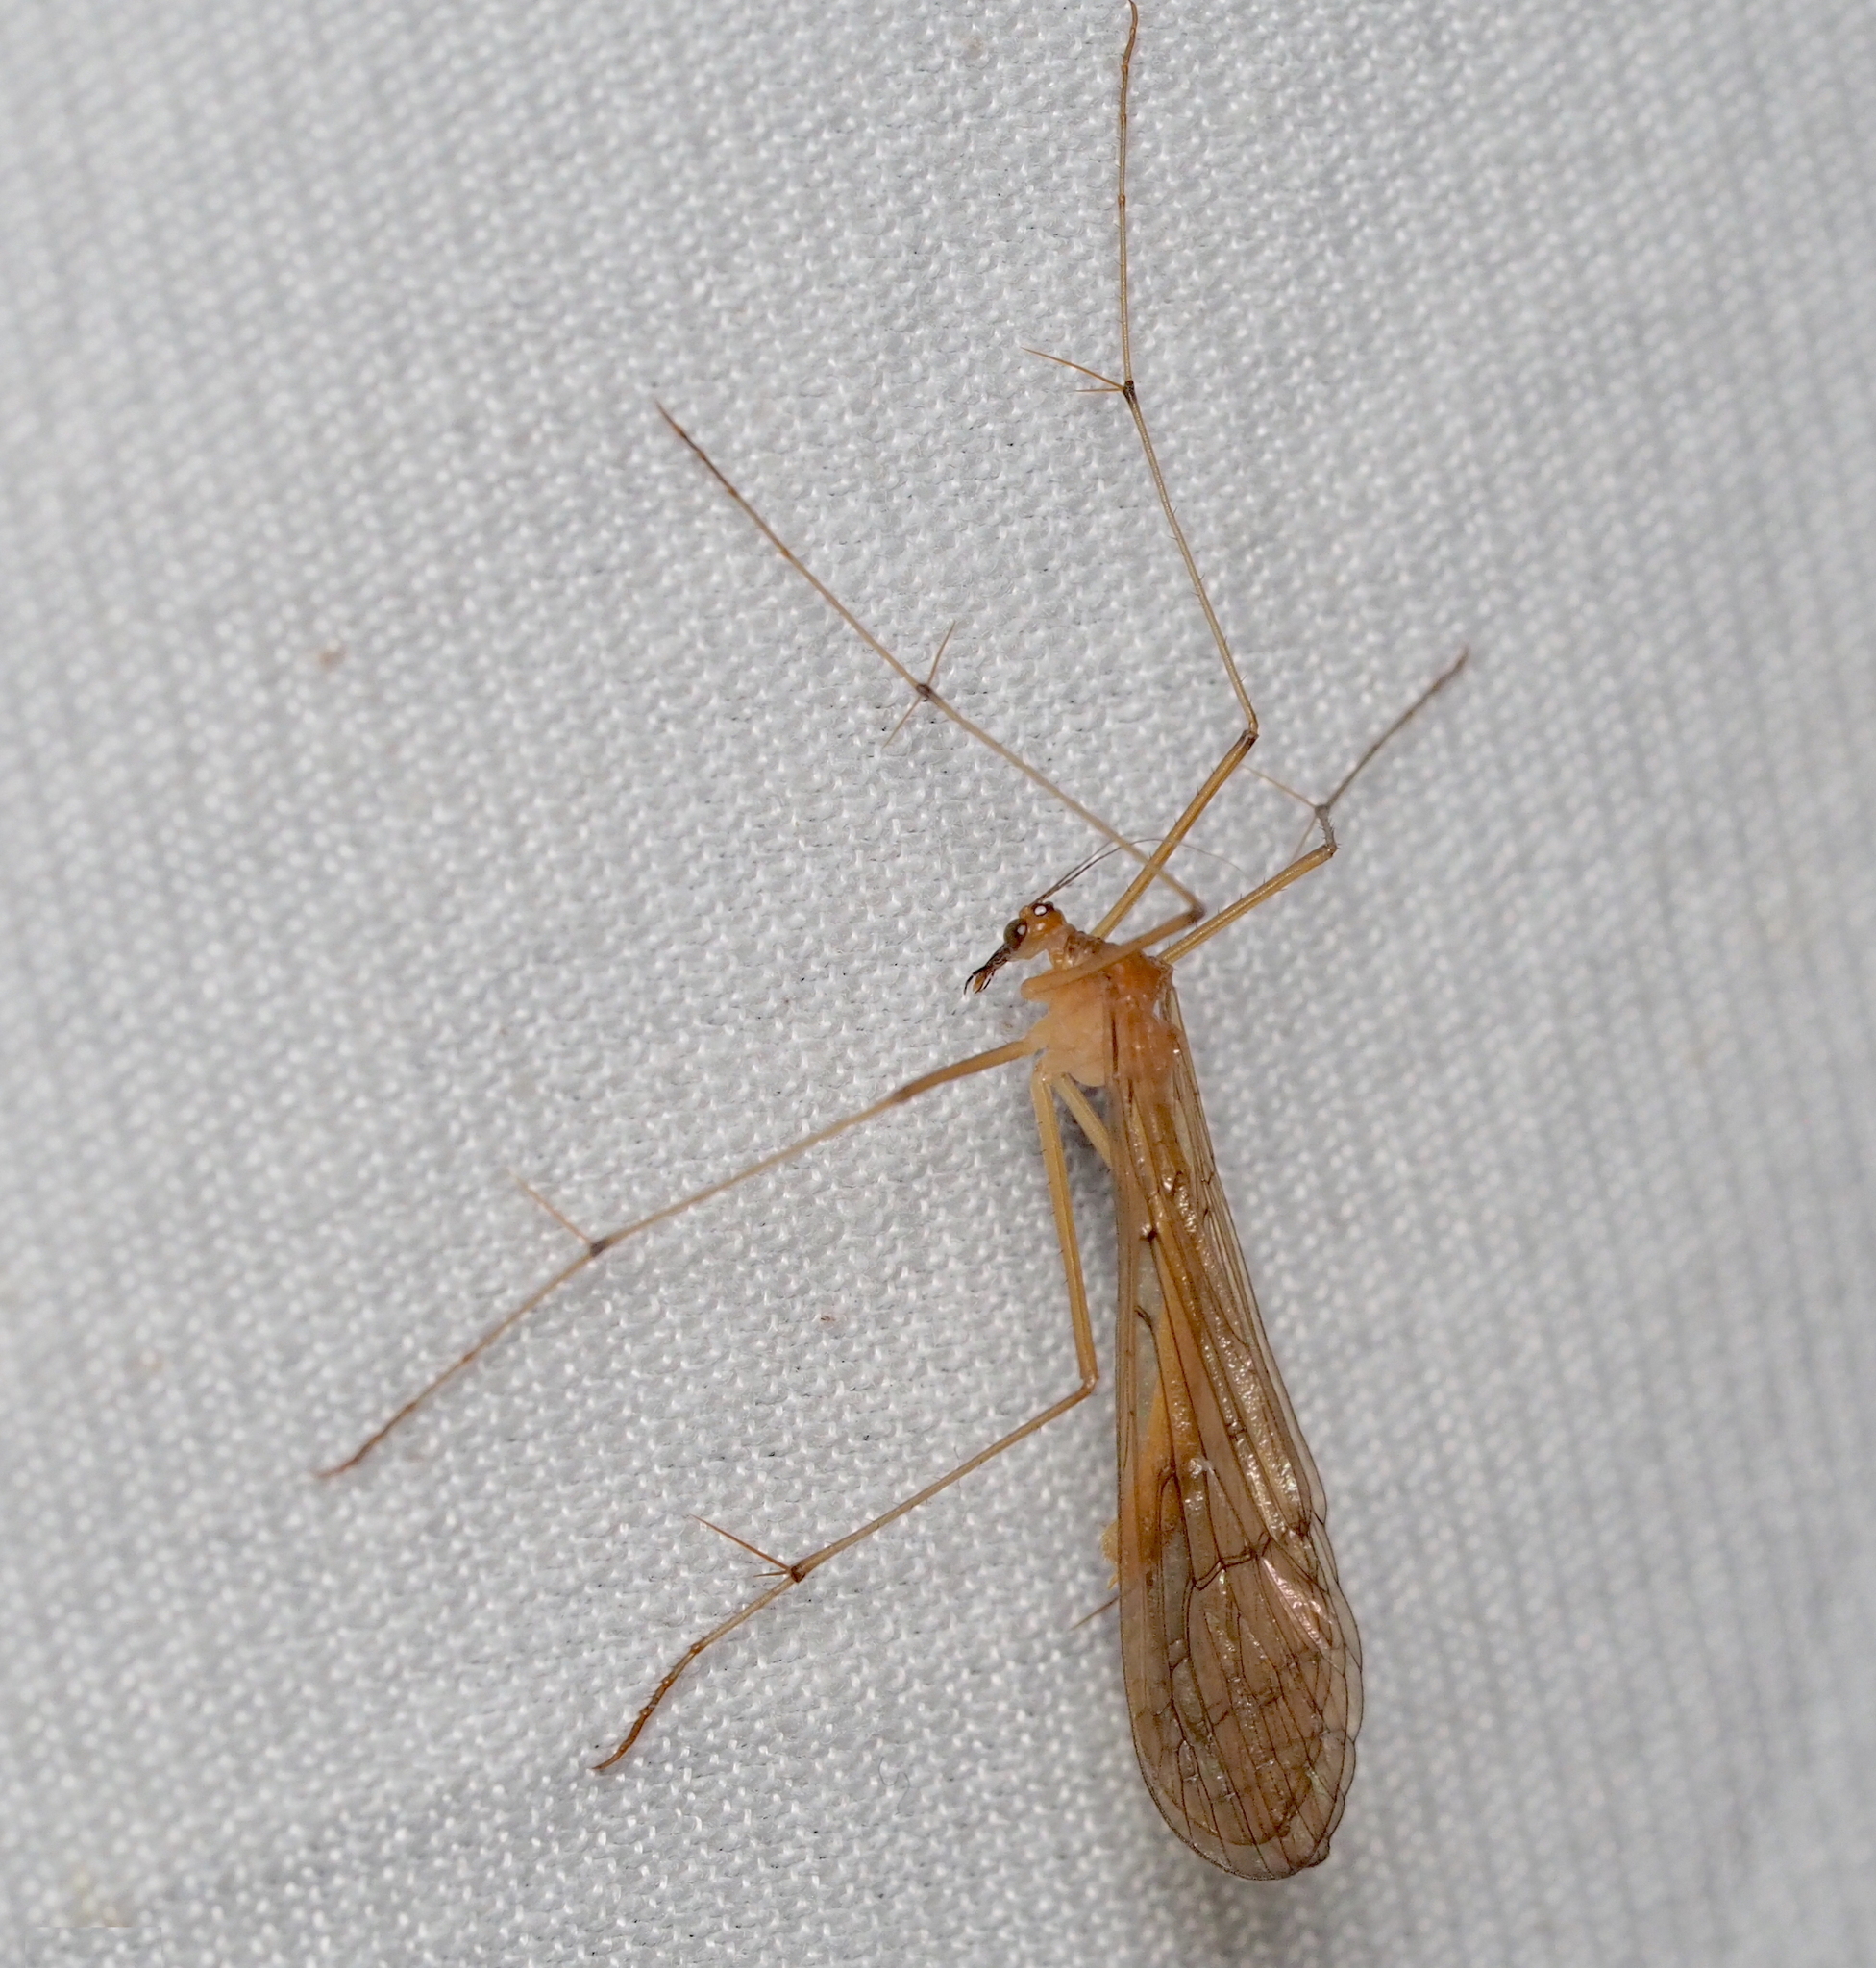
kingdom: Animalia
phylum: Arthropoda
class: Insecta
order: Mecoptera
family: Bittacidae
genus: Bittacus
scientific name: Bittacus hageni
